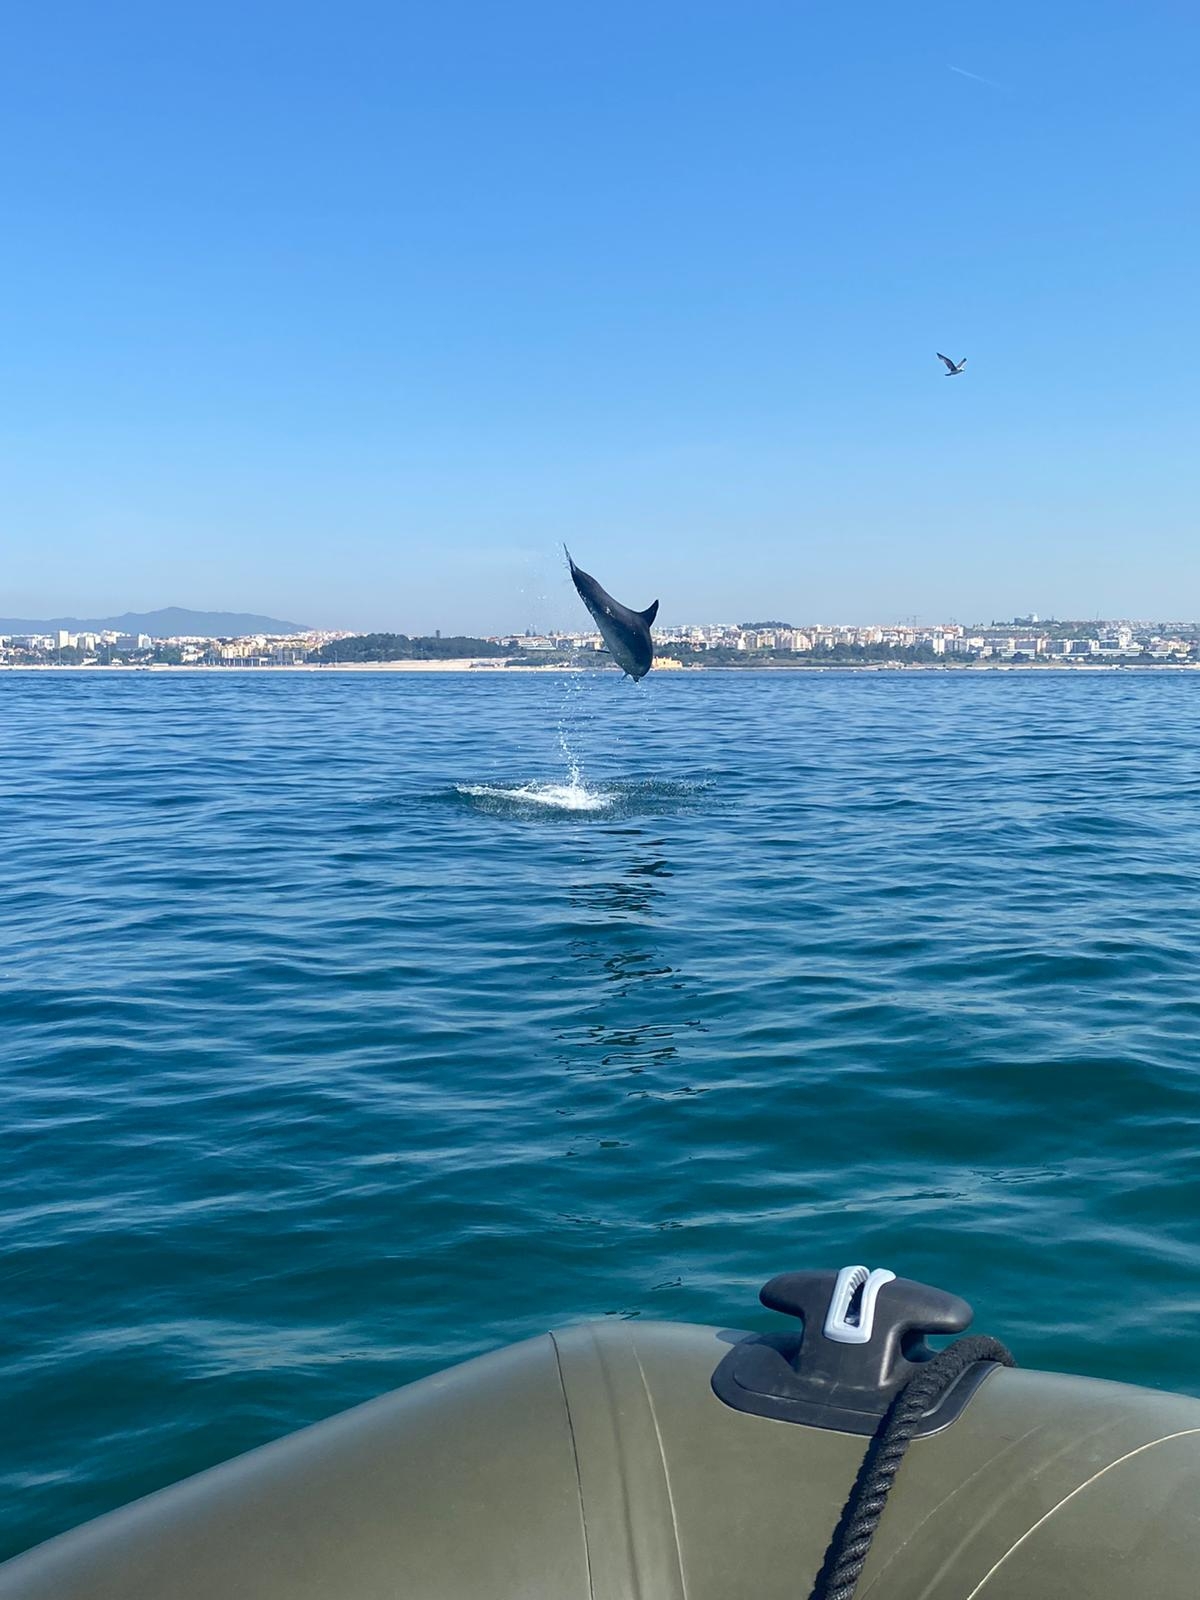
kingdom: Animalia
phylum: Chordata
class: Mammalia
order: Cetacea
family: Delphinidae
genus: Tursiops
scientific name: Tursiops truncatus
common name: Bottlenose dolphin
